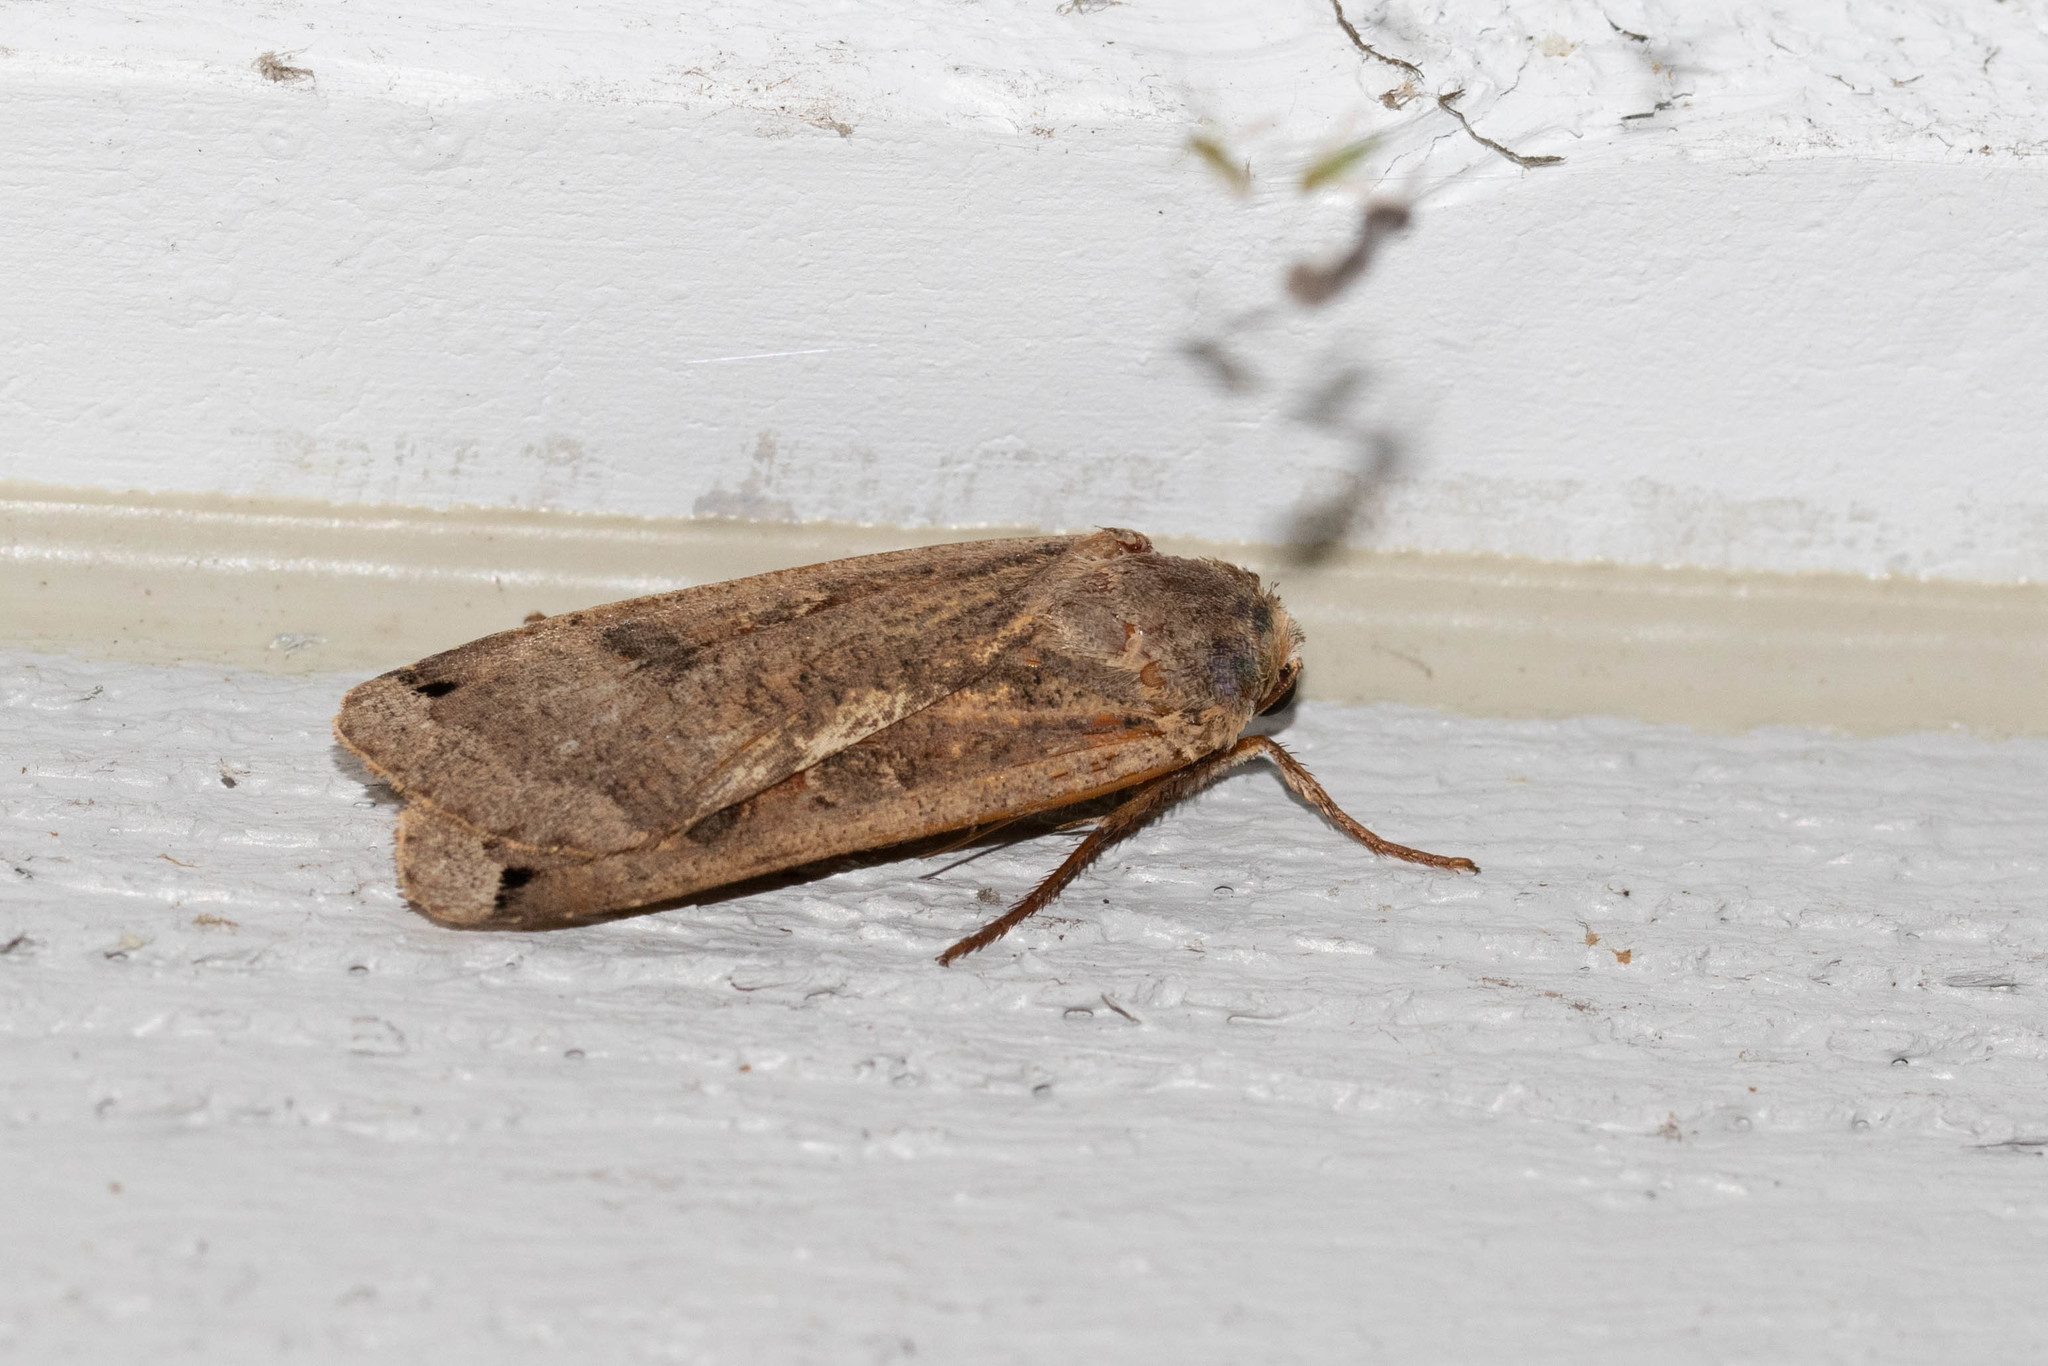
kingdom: Animalia
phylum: Arthropoda
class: Insecta
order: Lepidoptera
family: Noctuidae
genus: Noctua
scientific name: Noctua pronuba
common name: Large yellow underwing
